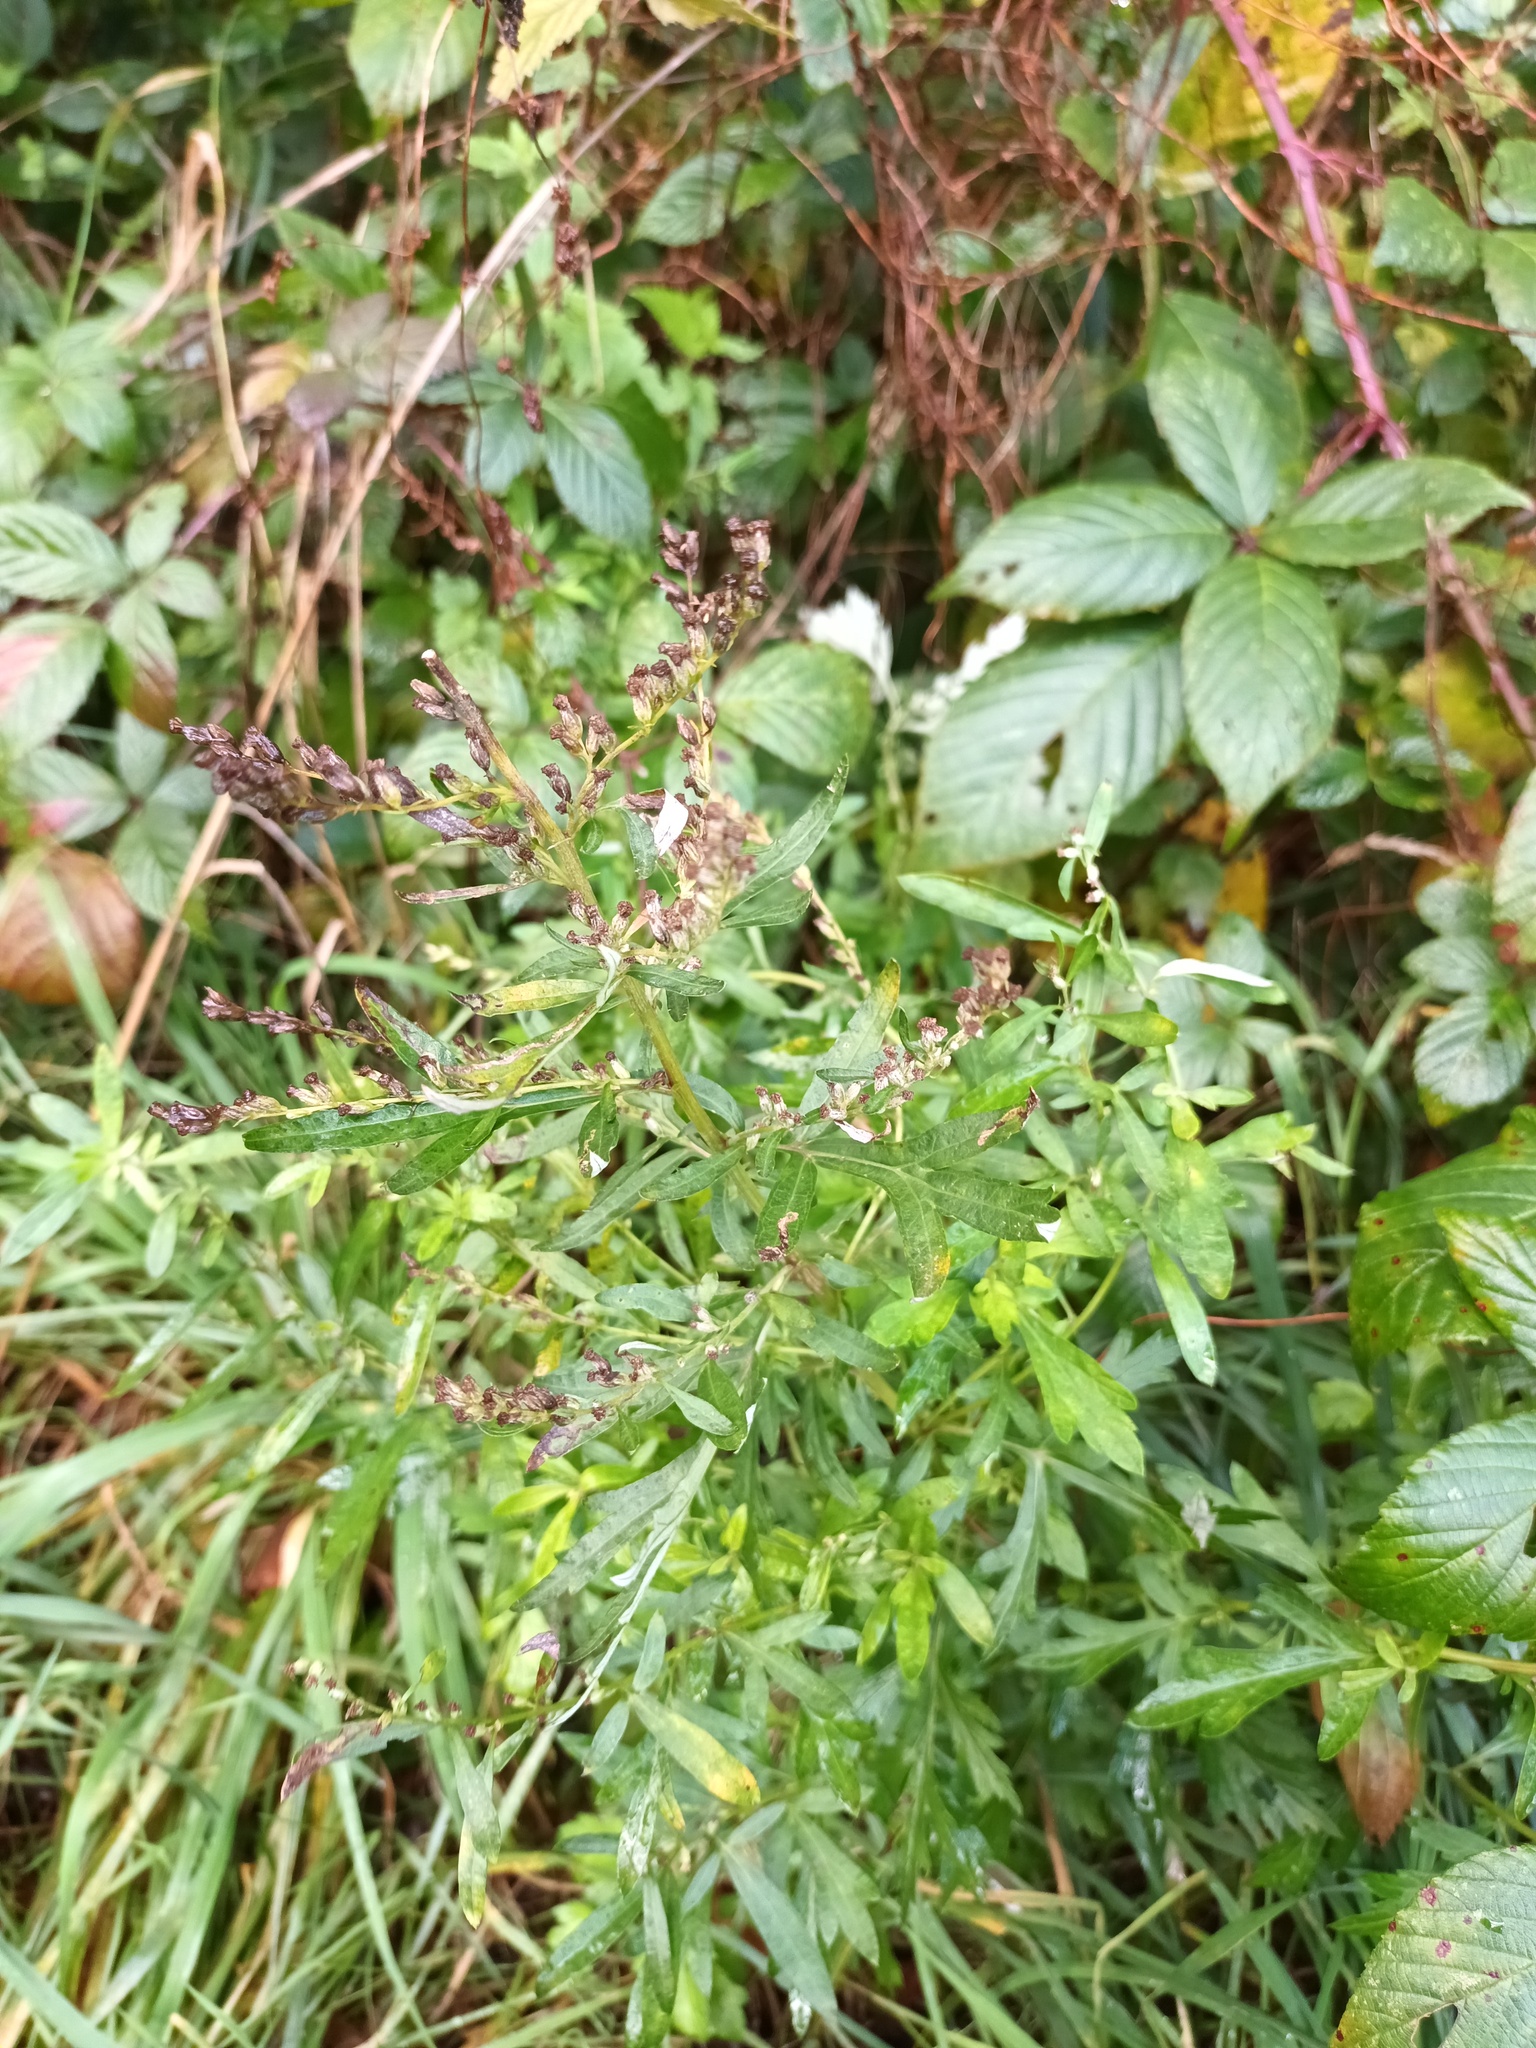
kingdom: Plantae
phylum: Tracheophyta
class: Magnoliopsida
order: Asterales
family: Asteraceae
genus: Artemisia
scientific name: Artemisia vulgaris
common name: Mugwort
